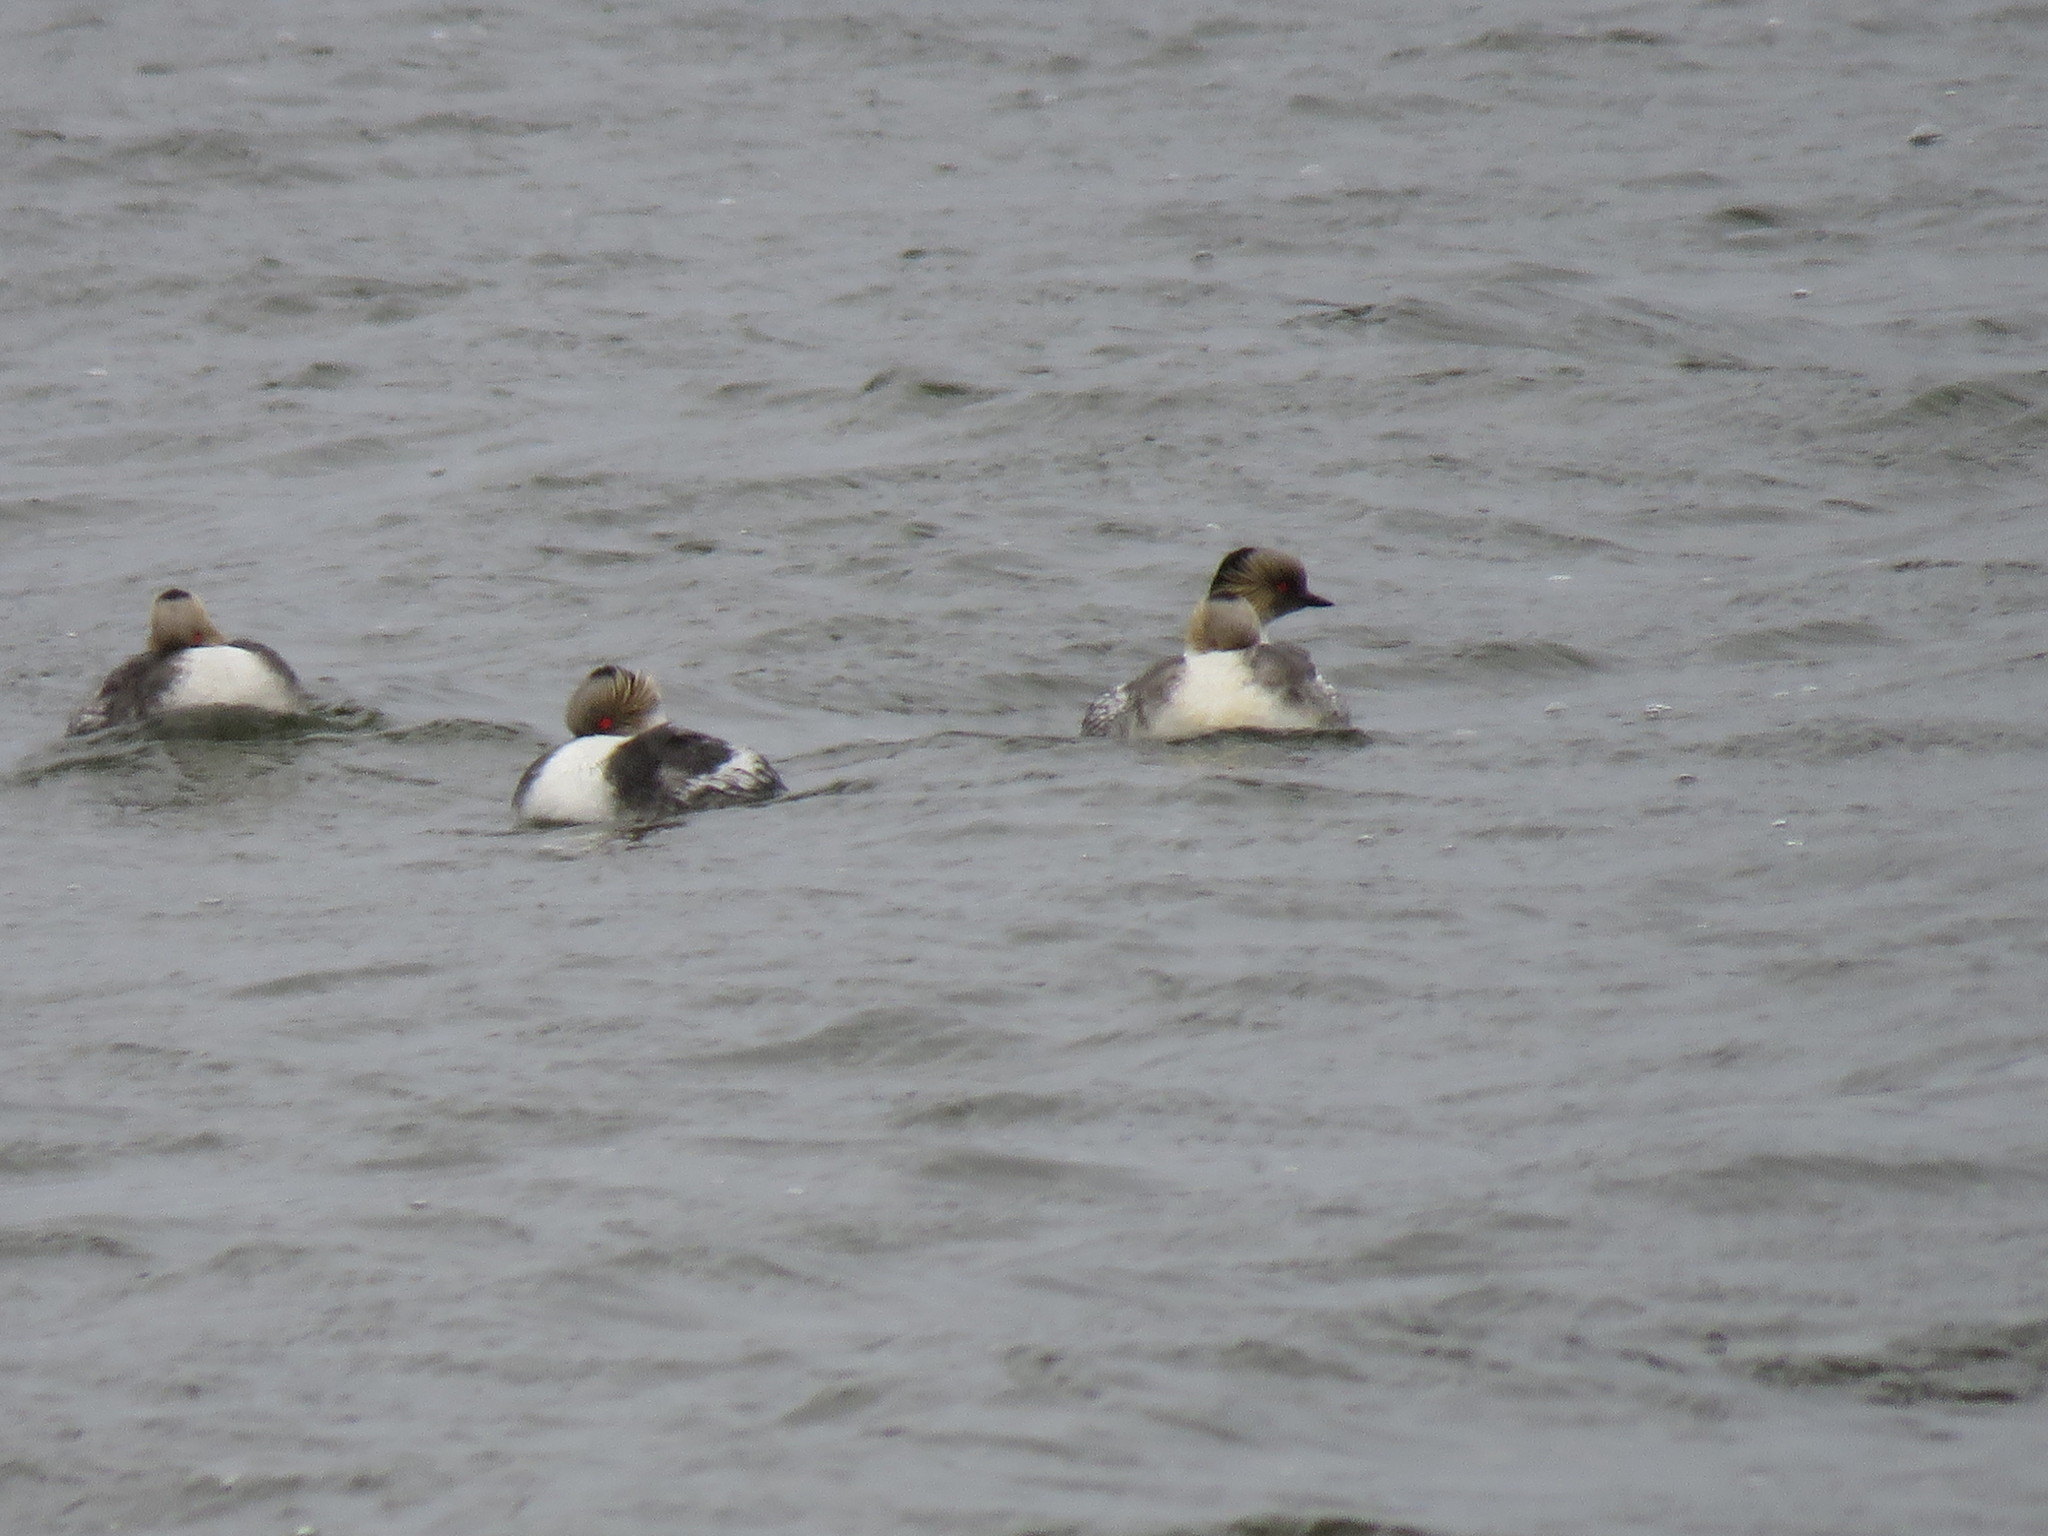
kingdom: Animalia
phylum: Chordata
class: Aves
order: Podicipediformes
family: Podicipedidae
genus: Podiceps
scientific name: Podiceps occipitalis
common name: Silvery grebe
